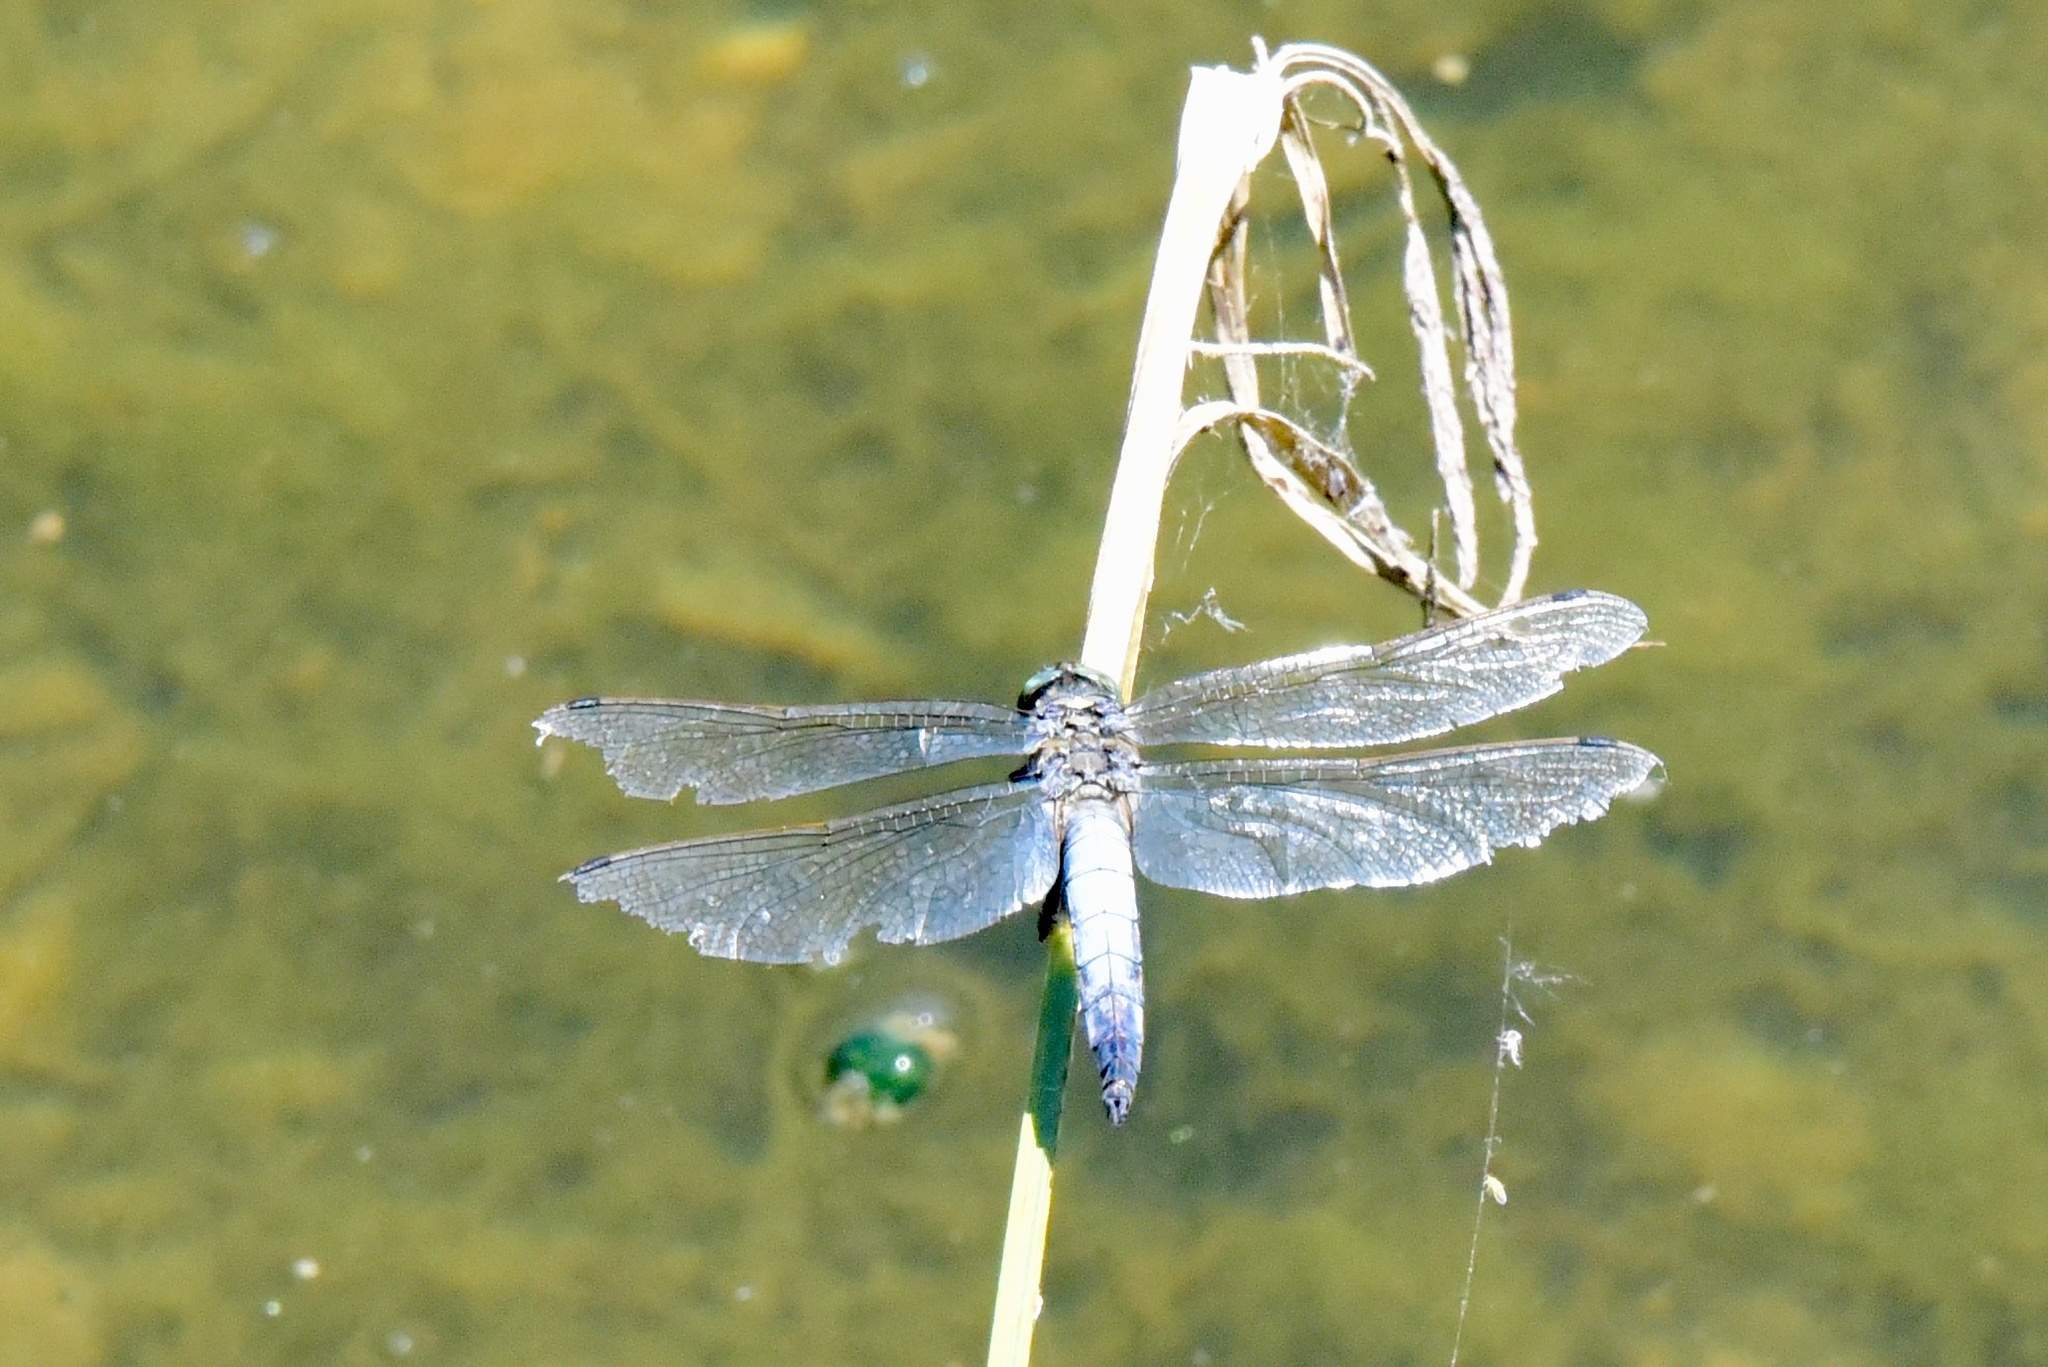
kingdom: Animalia
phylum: Arthropoda
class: Insecta
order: Odonata
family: Libellulidae
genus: Orthetrum
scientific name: Orthetrum cancellatum
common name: Black-tailed skimmer
